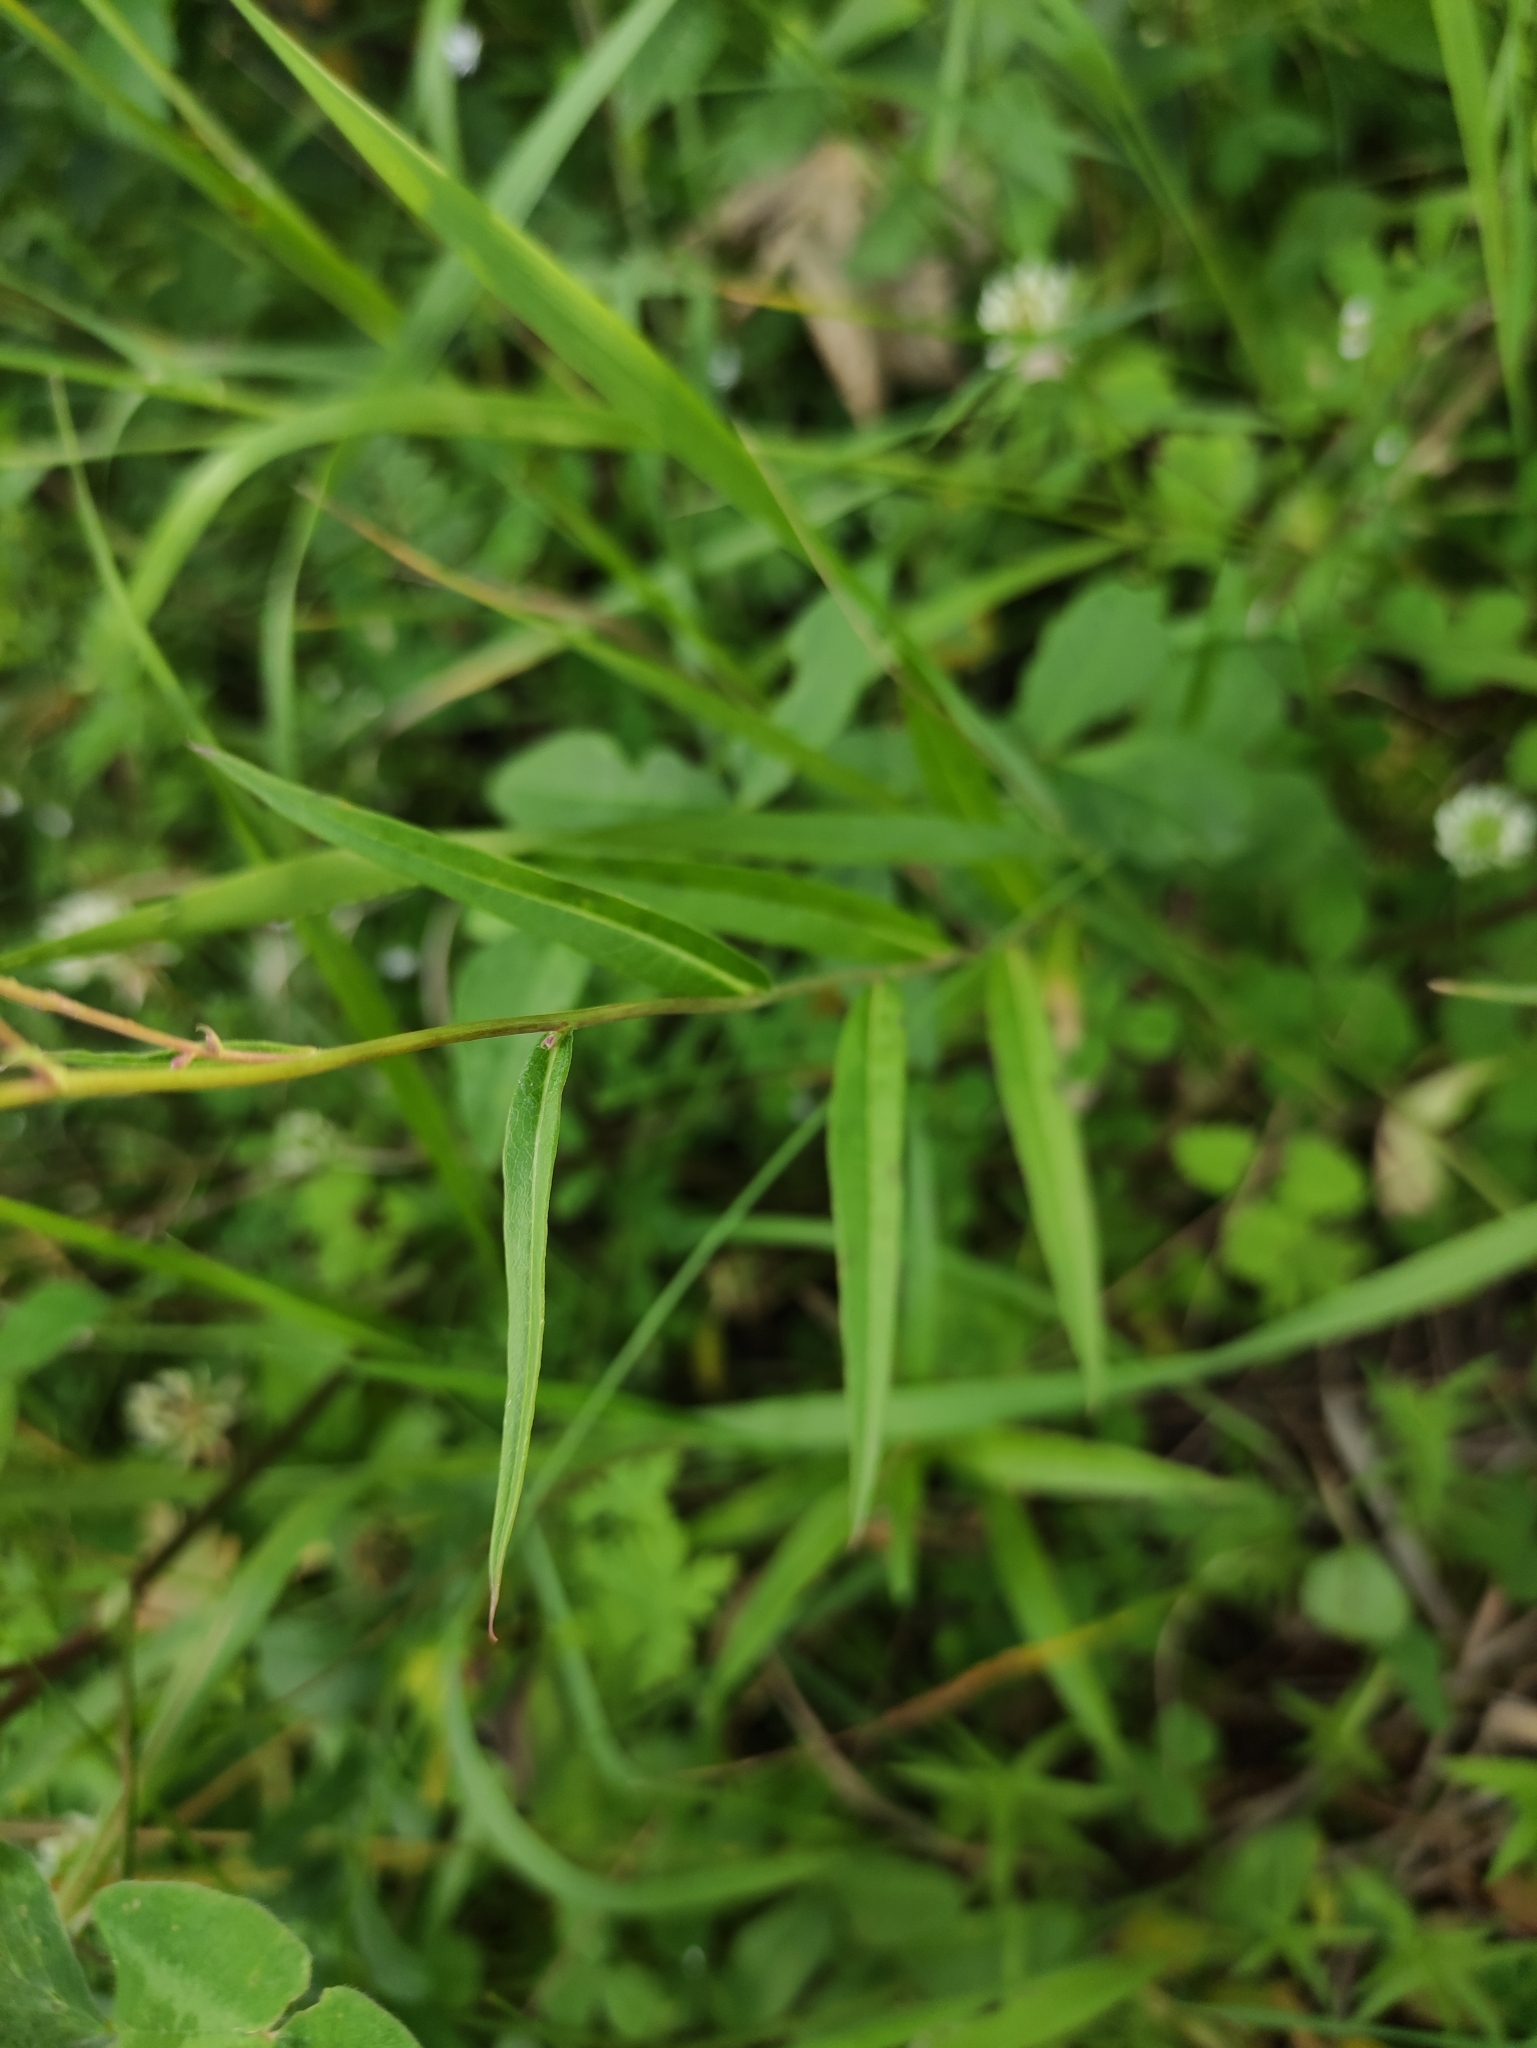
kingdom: Plantae
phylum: Tracheophyta
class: Magnoliopsida
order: Asterales
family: Asteraceae
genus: Lactuca
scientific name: Lactuca sibirica
